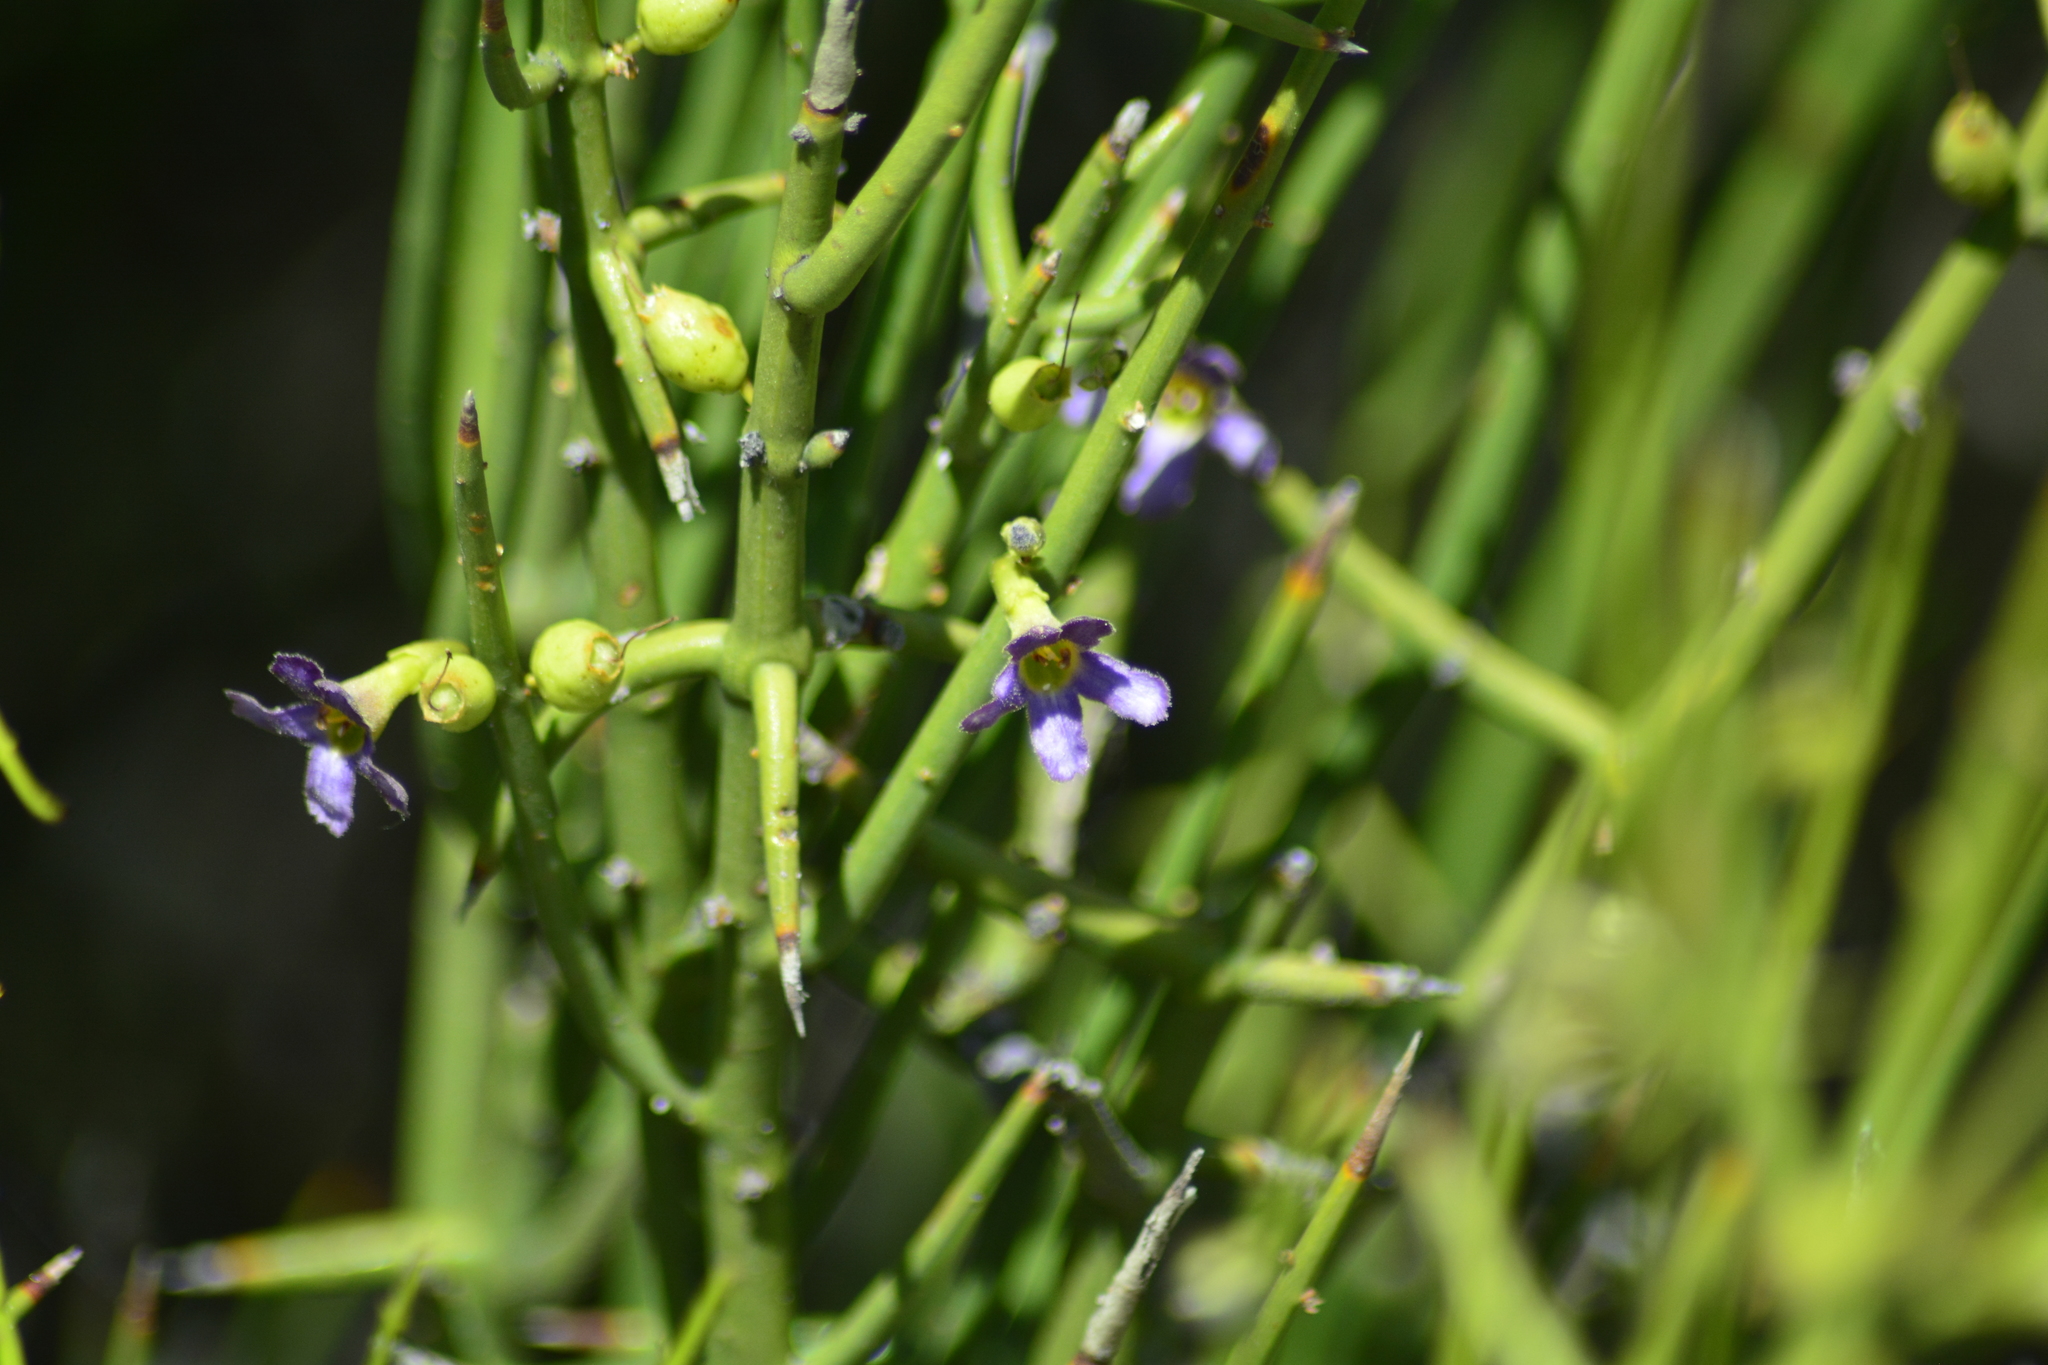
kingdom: Plantae
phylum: Tracheophyta
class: Magnoliopsida
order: Lamiales
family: Plantaginaceae
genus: Monttea
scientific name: Monttea aphylla
